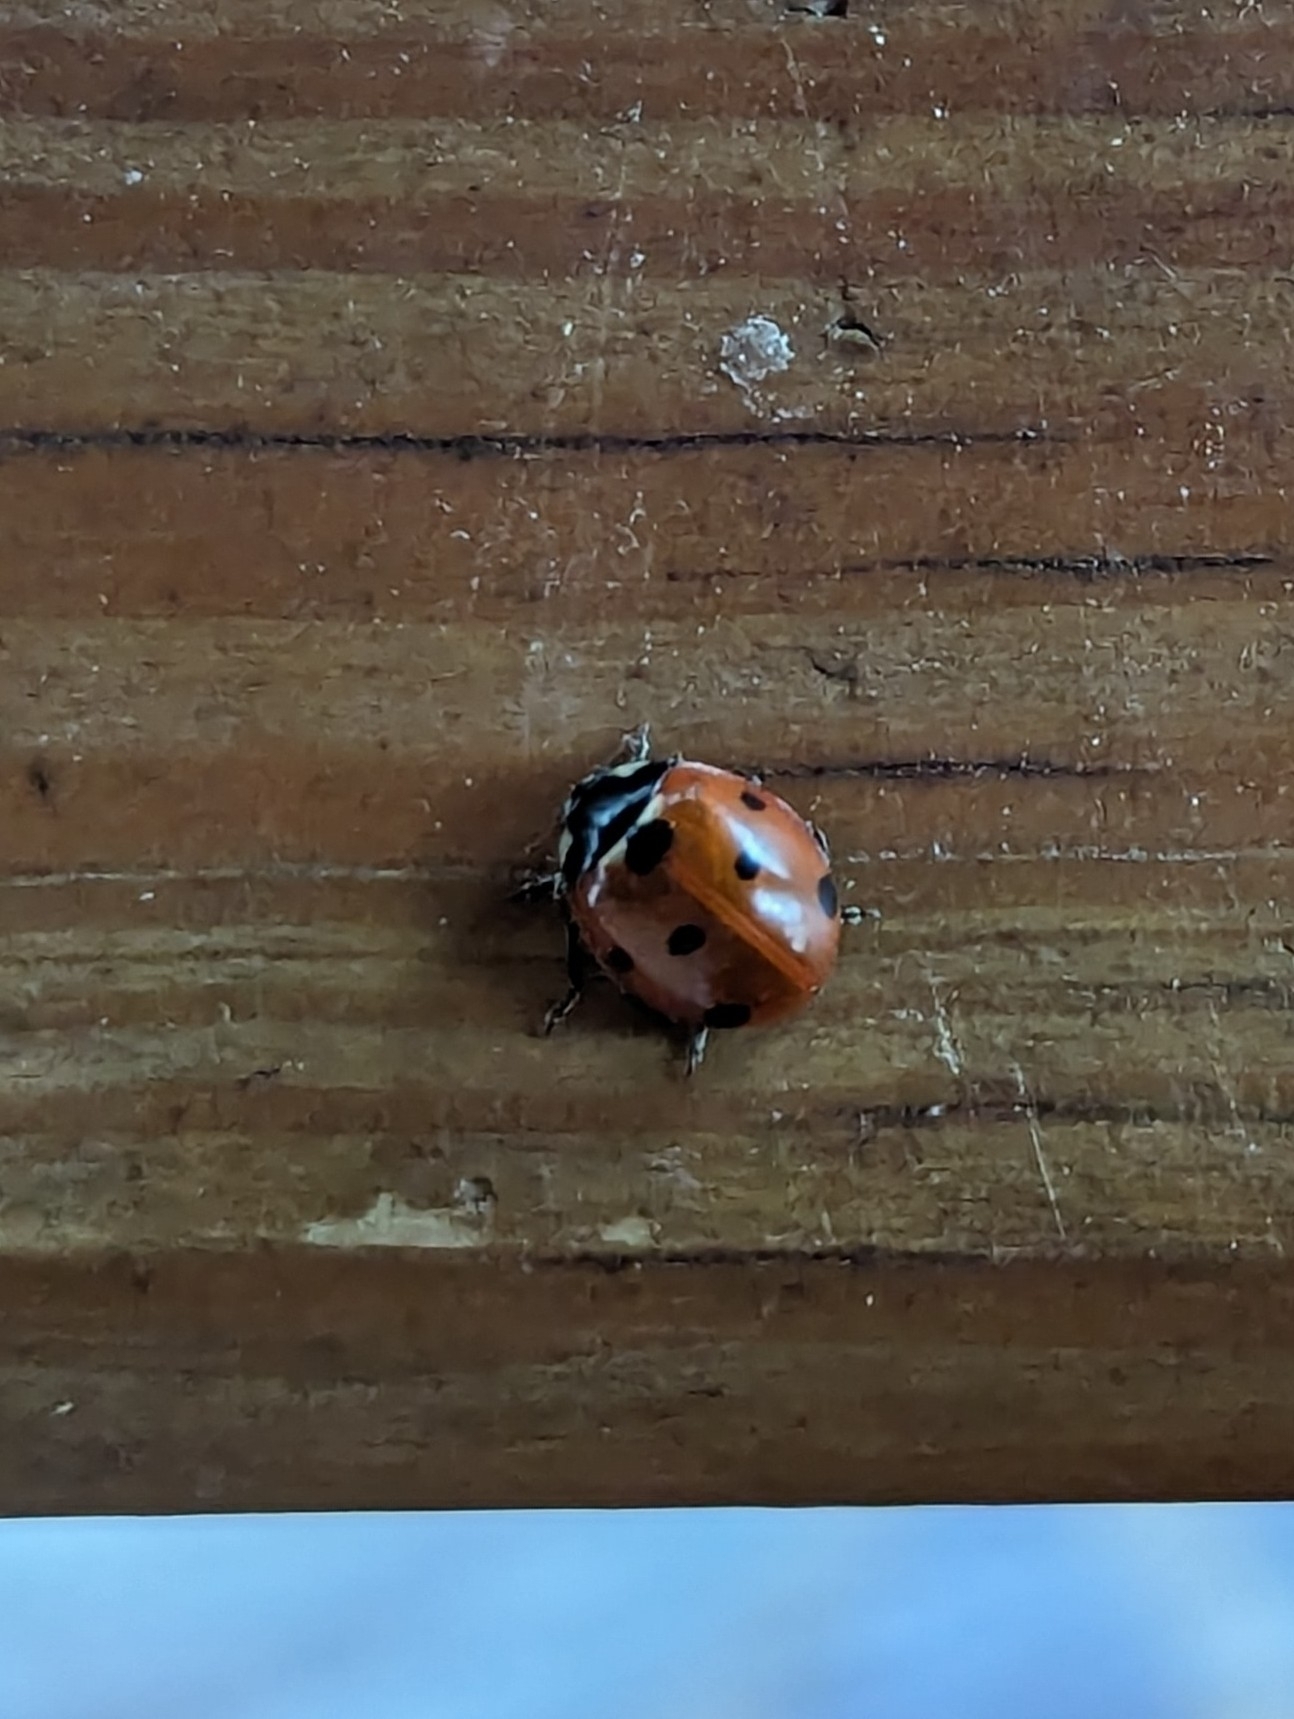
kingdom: Animalia
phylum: Arthropoda
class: Insecta
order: Coleoptera
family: Coccinellidae
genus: Coccinella
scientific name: Coccinella septempunctata
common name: Sevenspotted lady beetle
